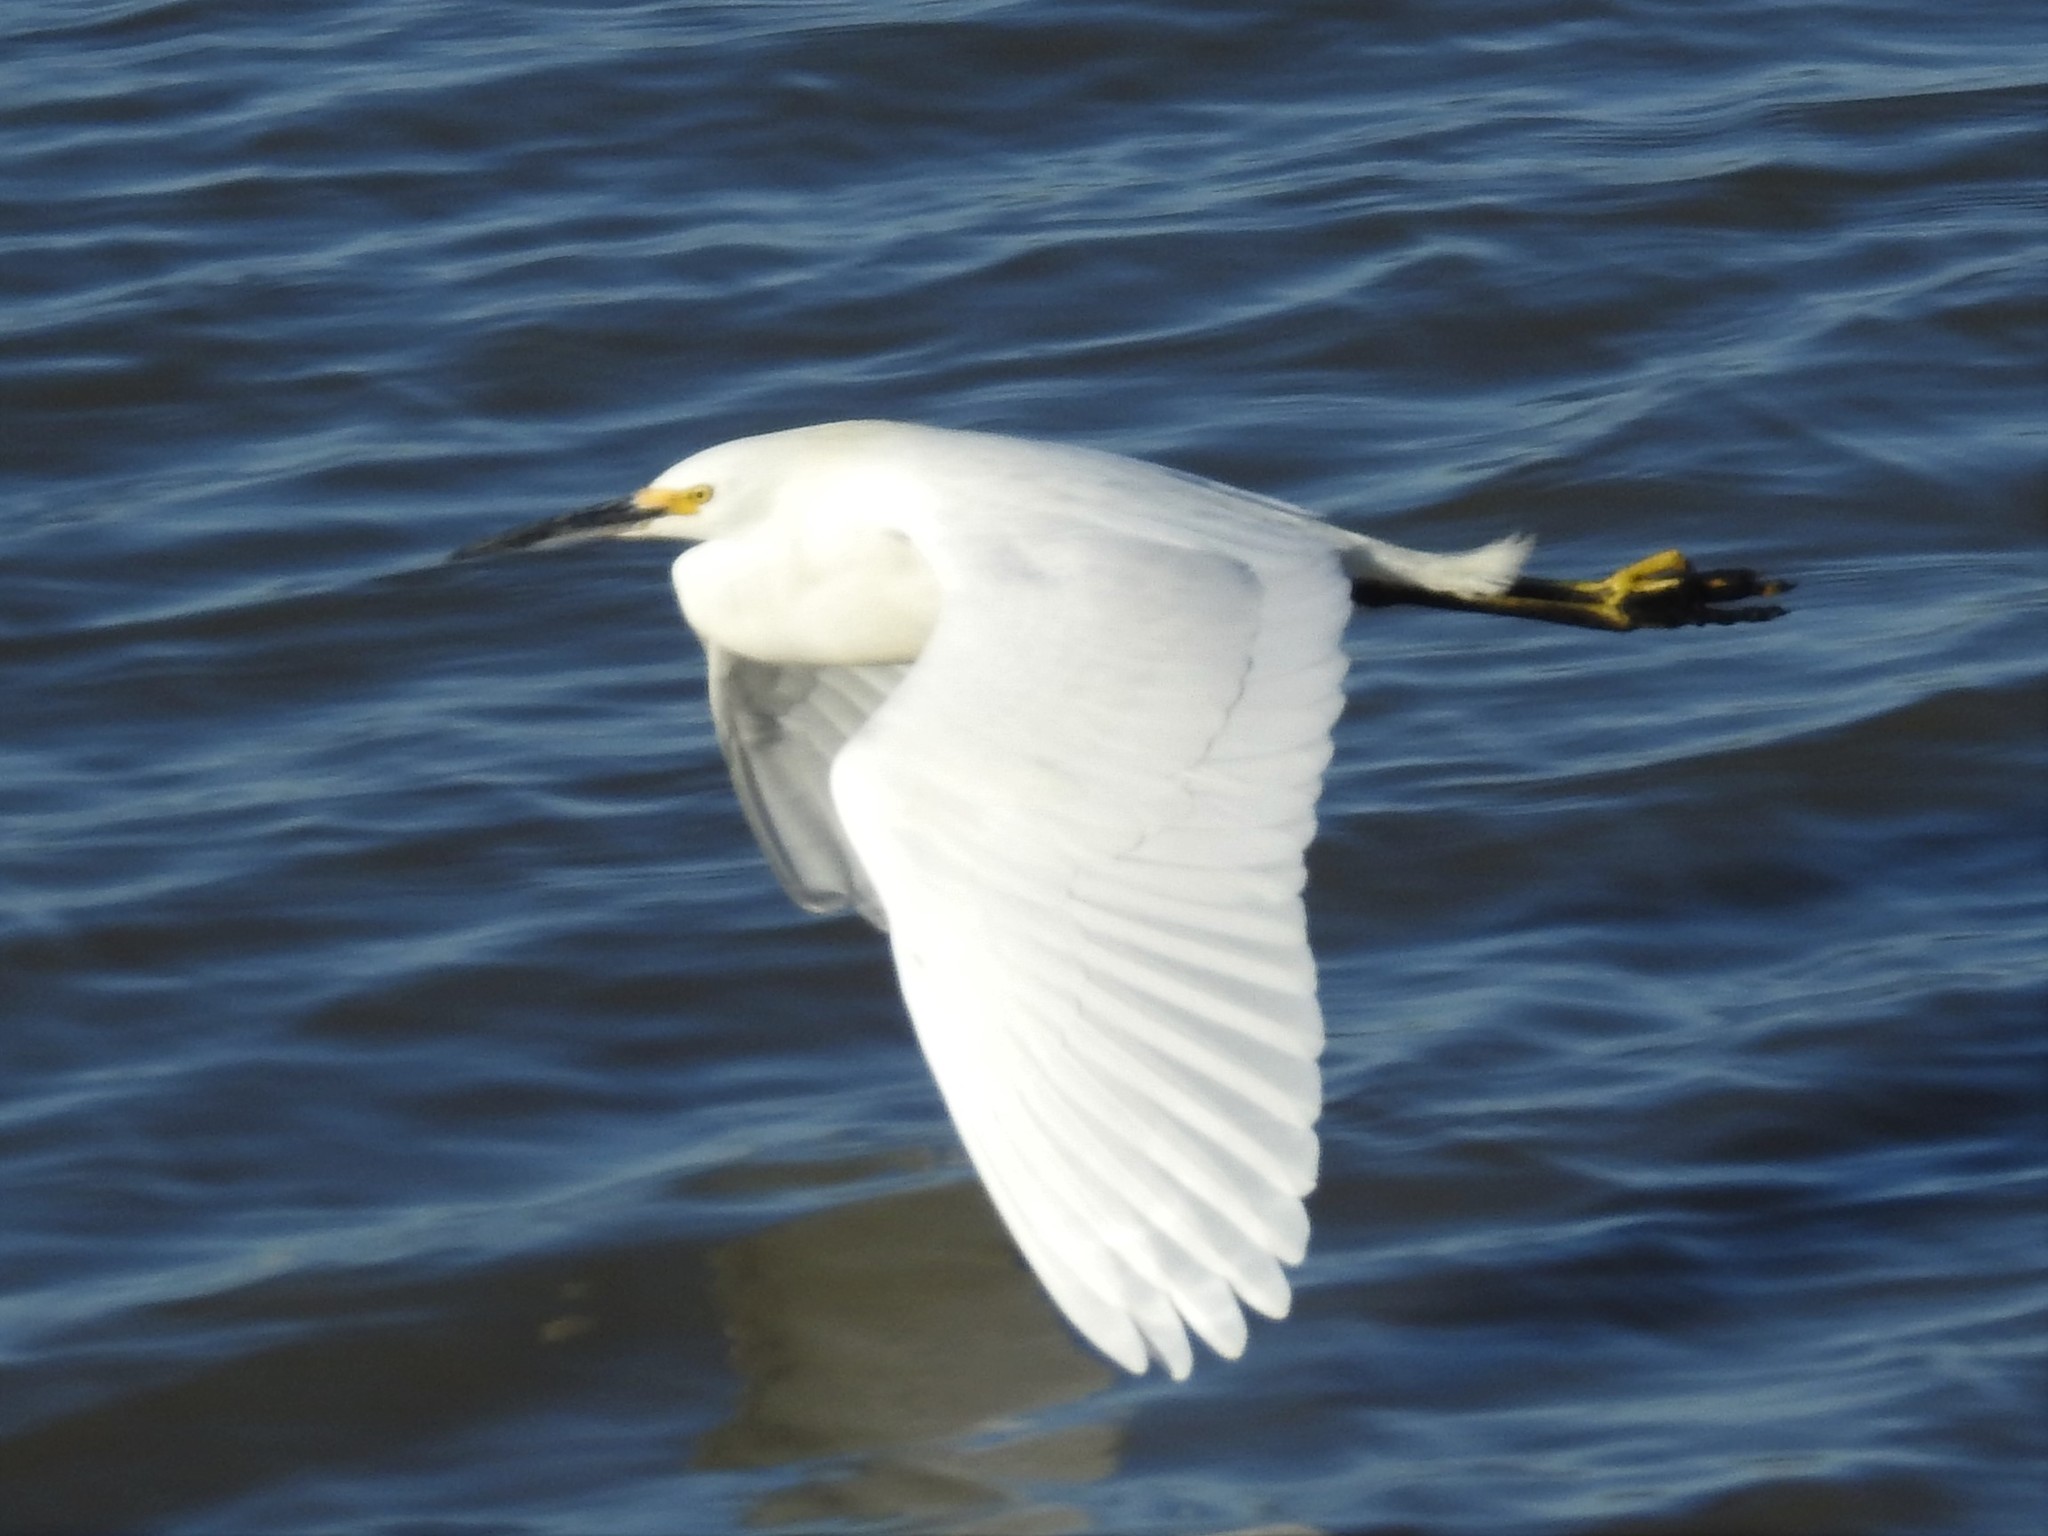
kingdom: Animalia
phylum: Chordata
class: Aves
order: Pelecaniformes
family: Ardeidae
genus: Egretta
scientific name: Egretta thula
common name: Snowy egret
